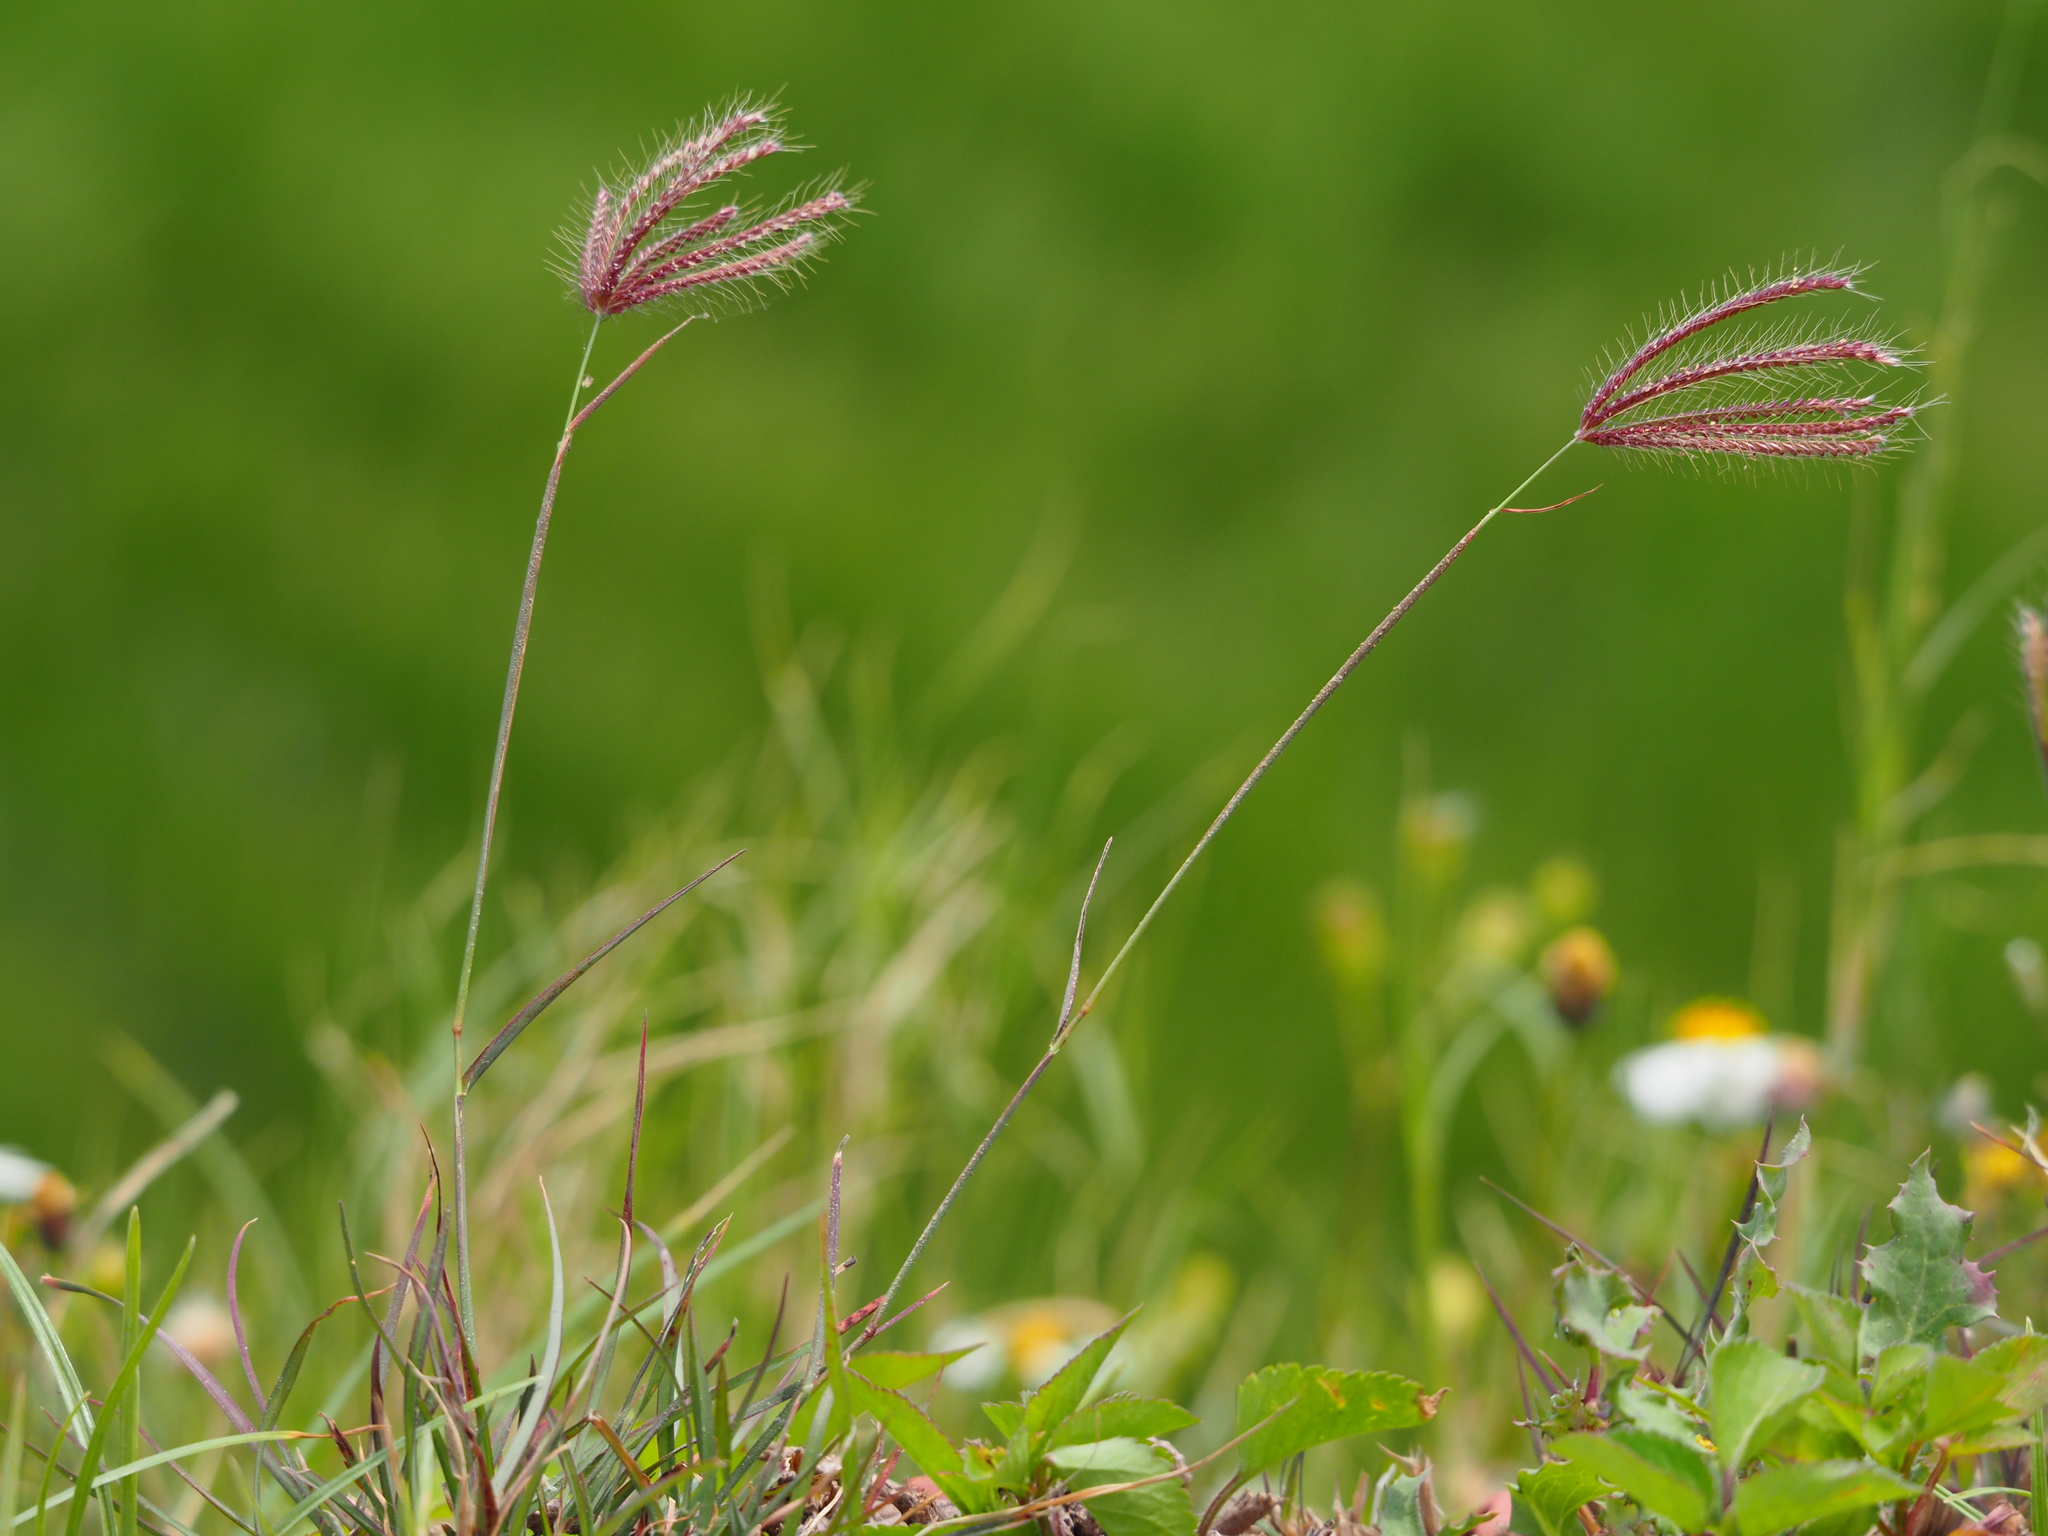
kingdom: Plantae
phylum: Tracheophyta
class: Liliopsida
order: Poales
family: Poaceae
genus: Chloris
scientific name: Chloris barbata
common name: Swollen fingergrass
